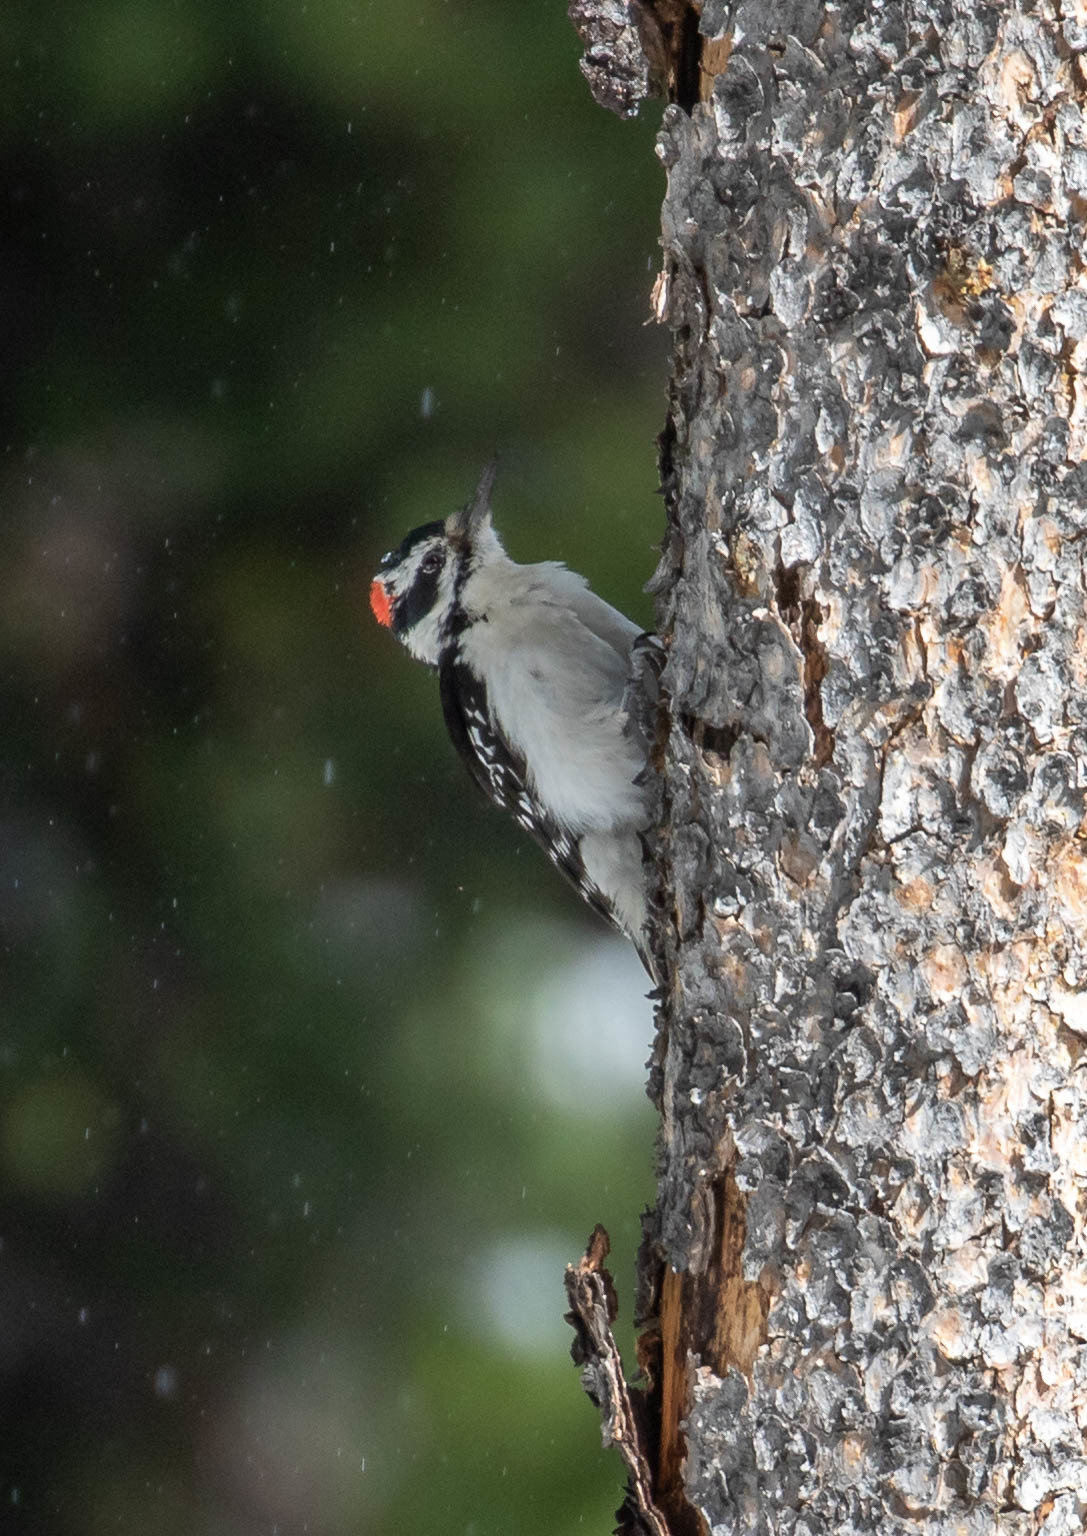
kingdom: Animalia
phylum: Chordata
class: Aves
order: Piciformes
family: Picidae
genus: Leuconotopicus
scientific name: Leuconotopicus villosus
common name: Hairy woodpecker
